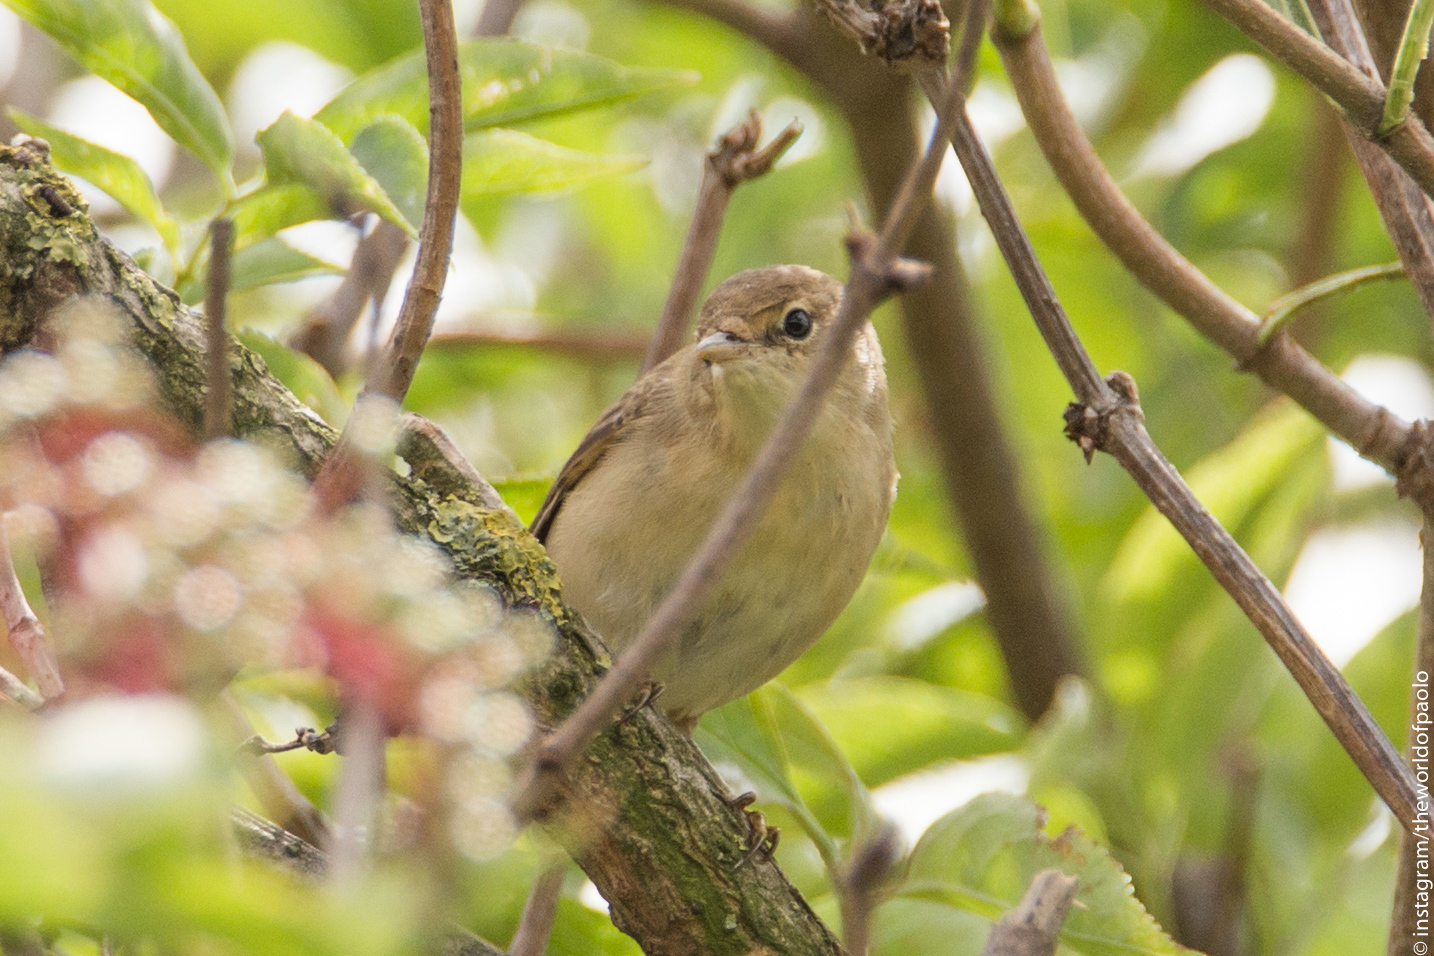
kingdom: Animalia
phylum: Chordata
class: Aves
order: Passeriformes
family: Acrocephalidae
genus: Acrocephalus
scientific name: Acrocephalus scirpaceus
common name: Eurasian reed warbler
